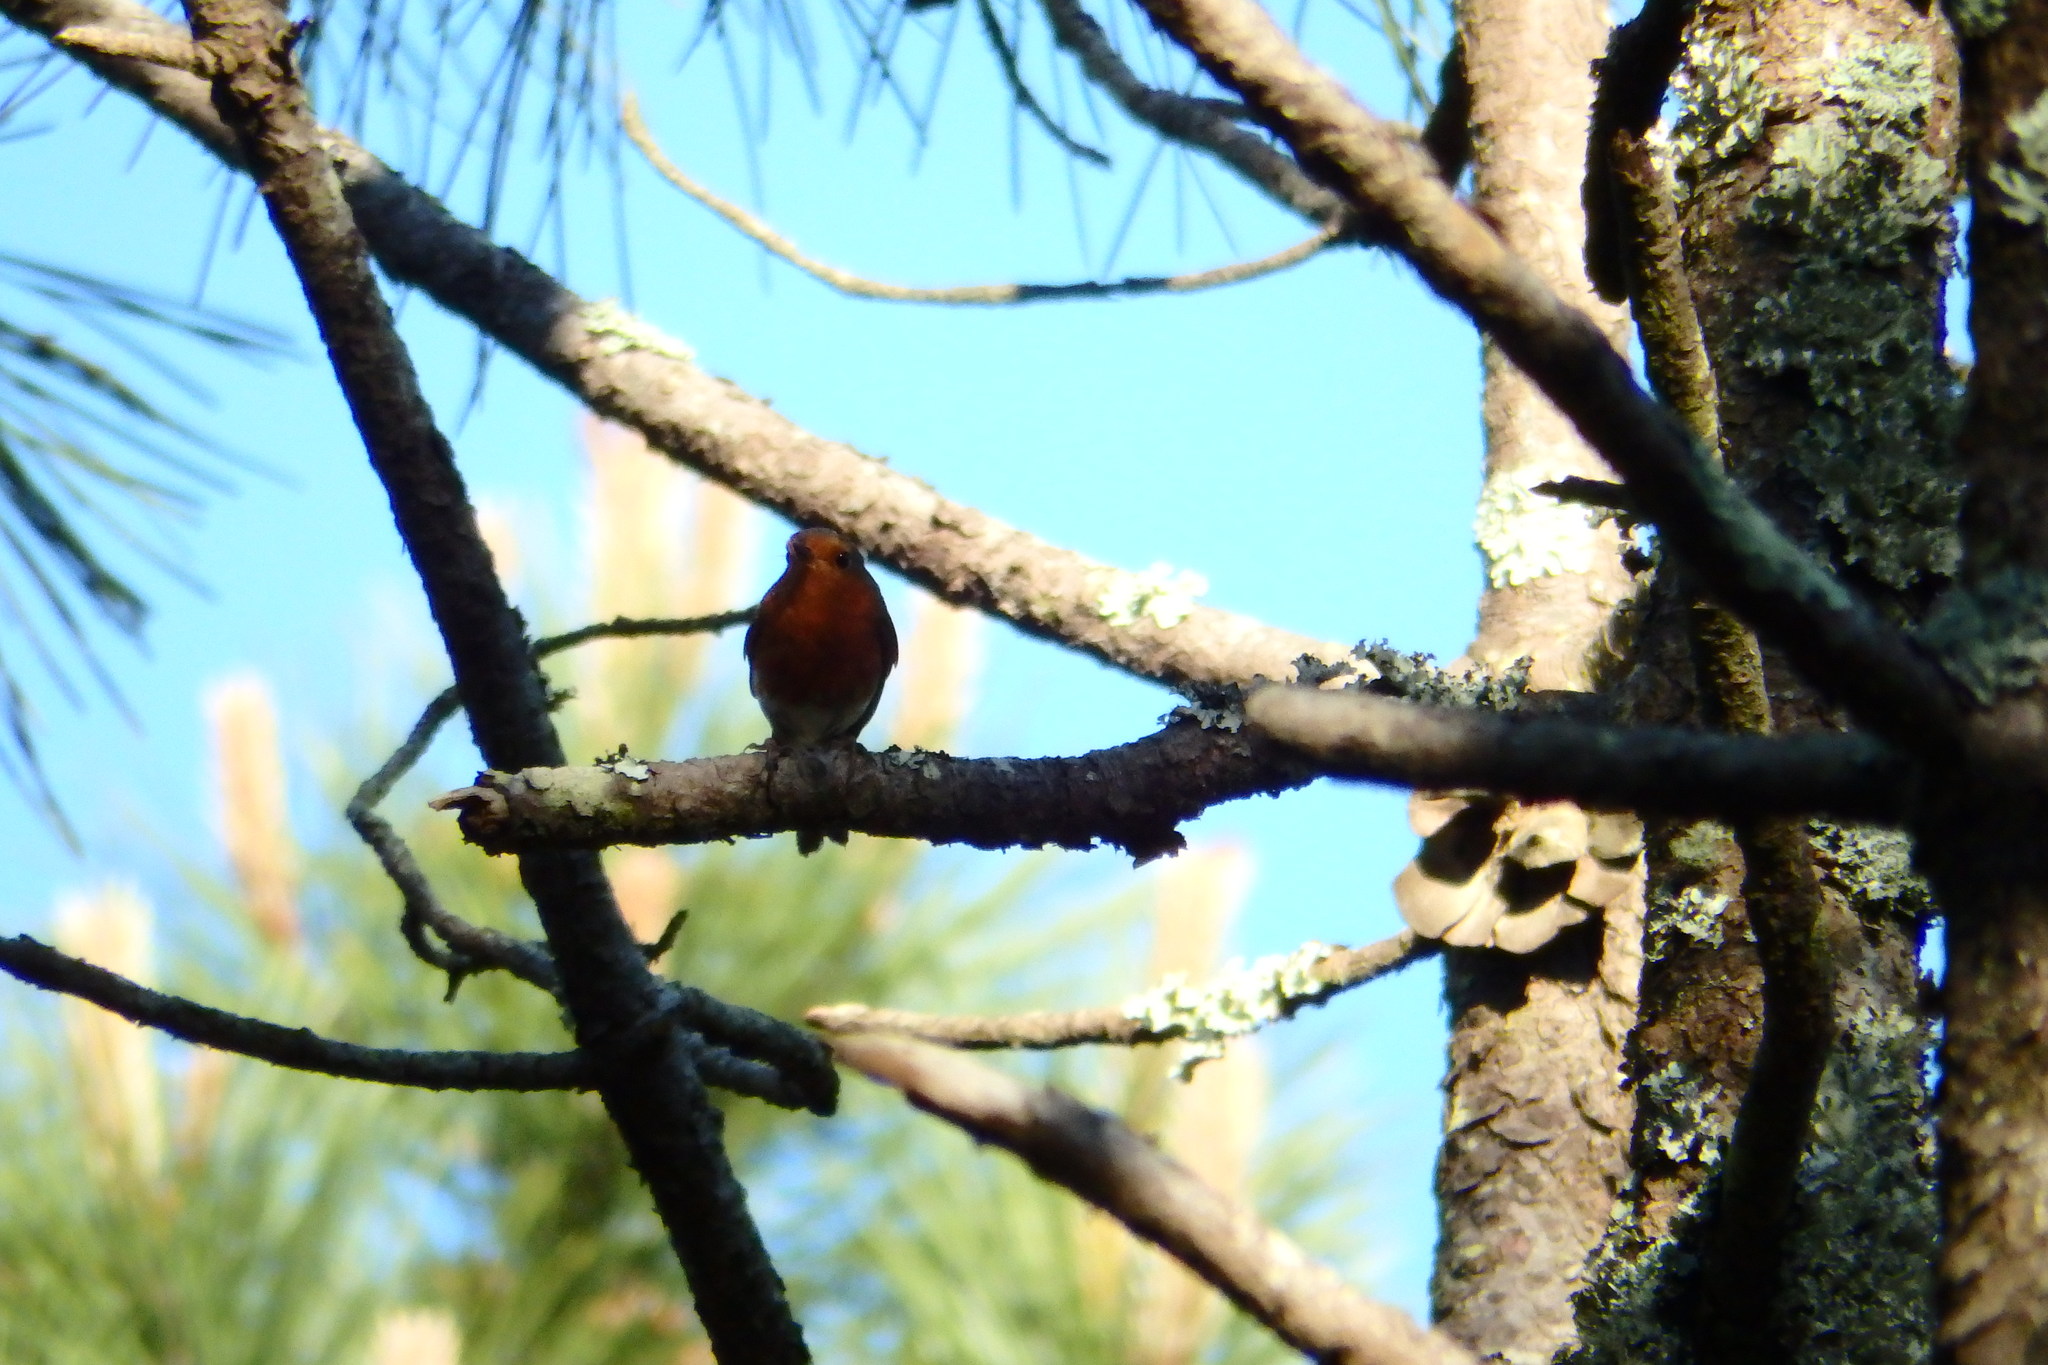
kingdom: Animalia
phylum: Chordata
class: Aves
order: Passeriformes
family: Muscicapidae
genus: Erithacus
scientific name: Erithacus rubecula
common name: European robin
